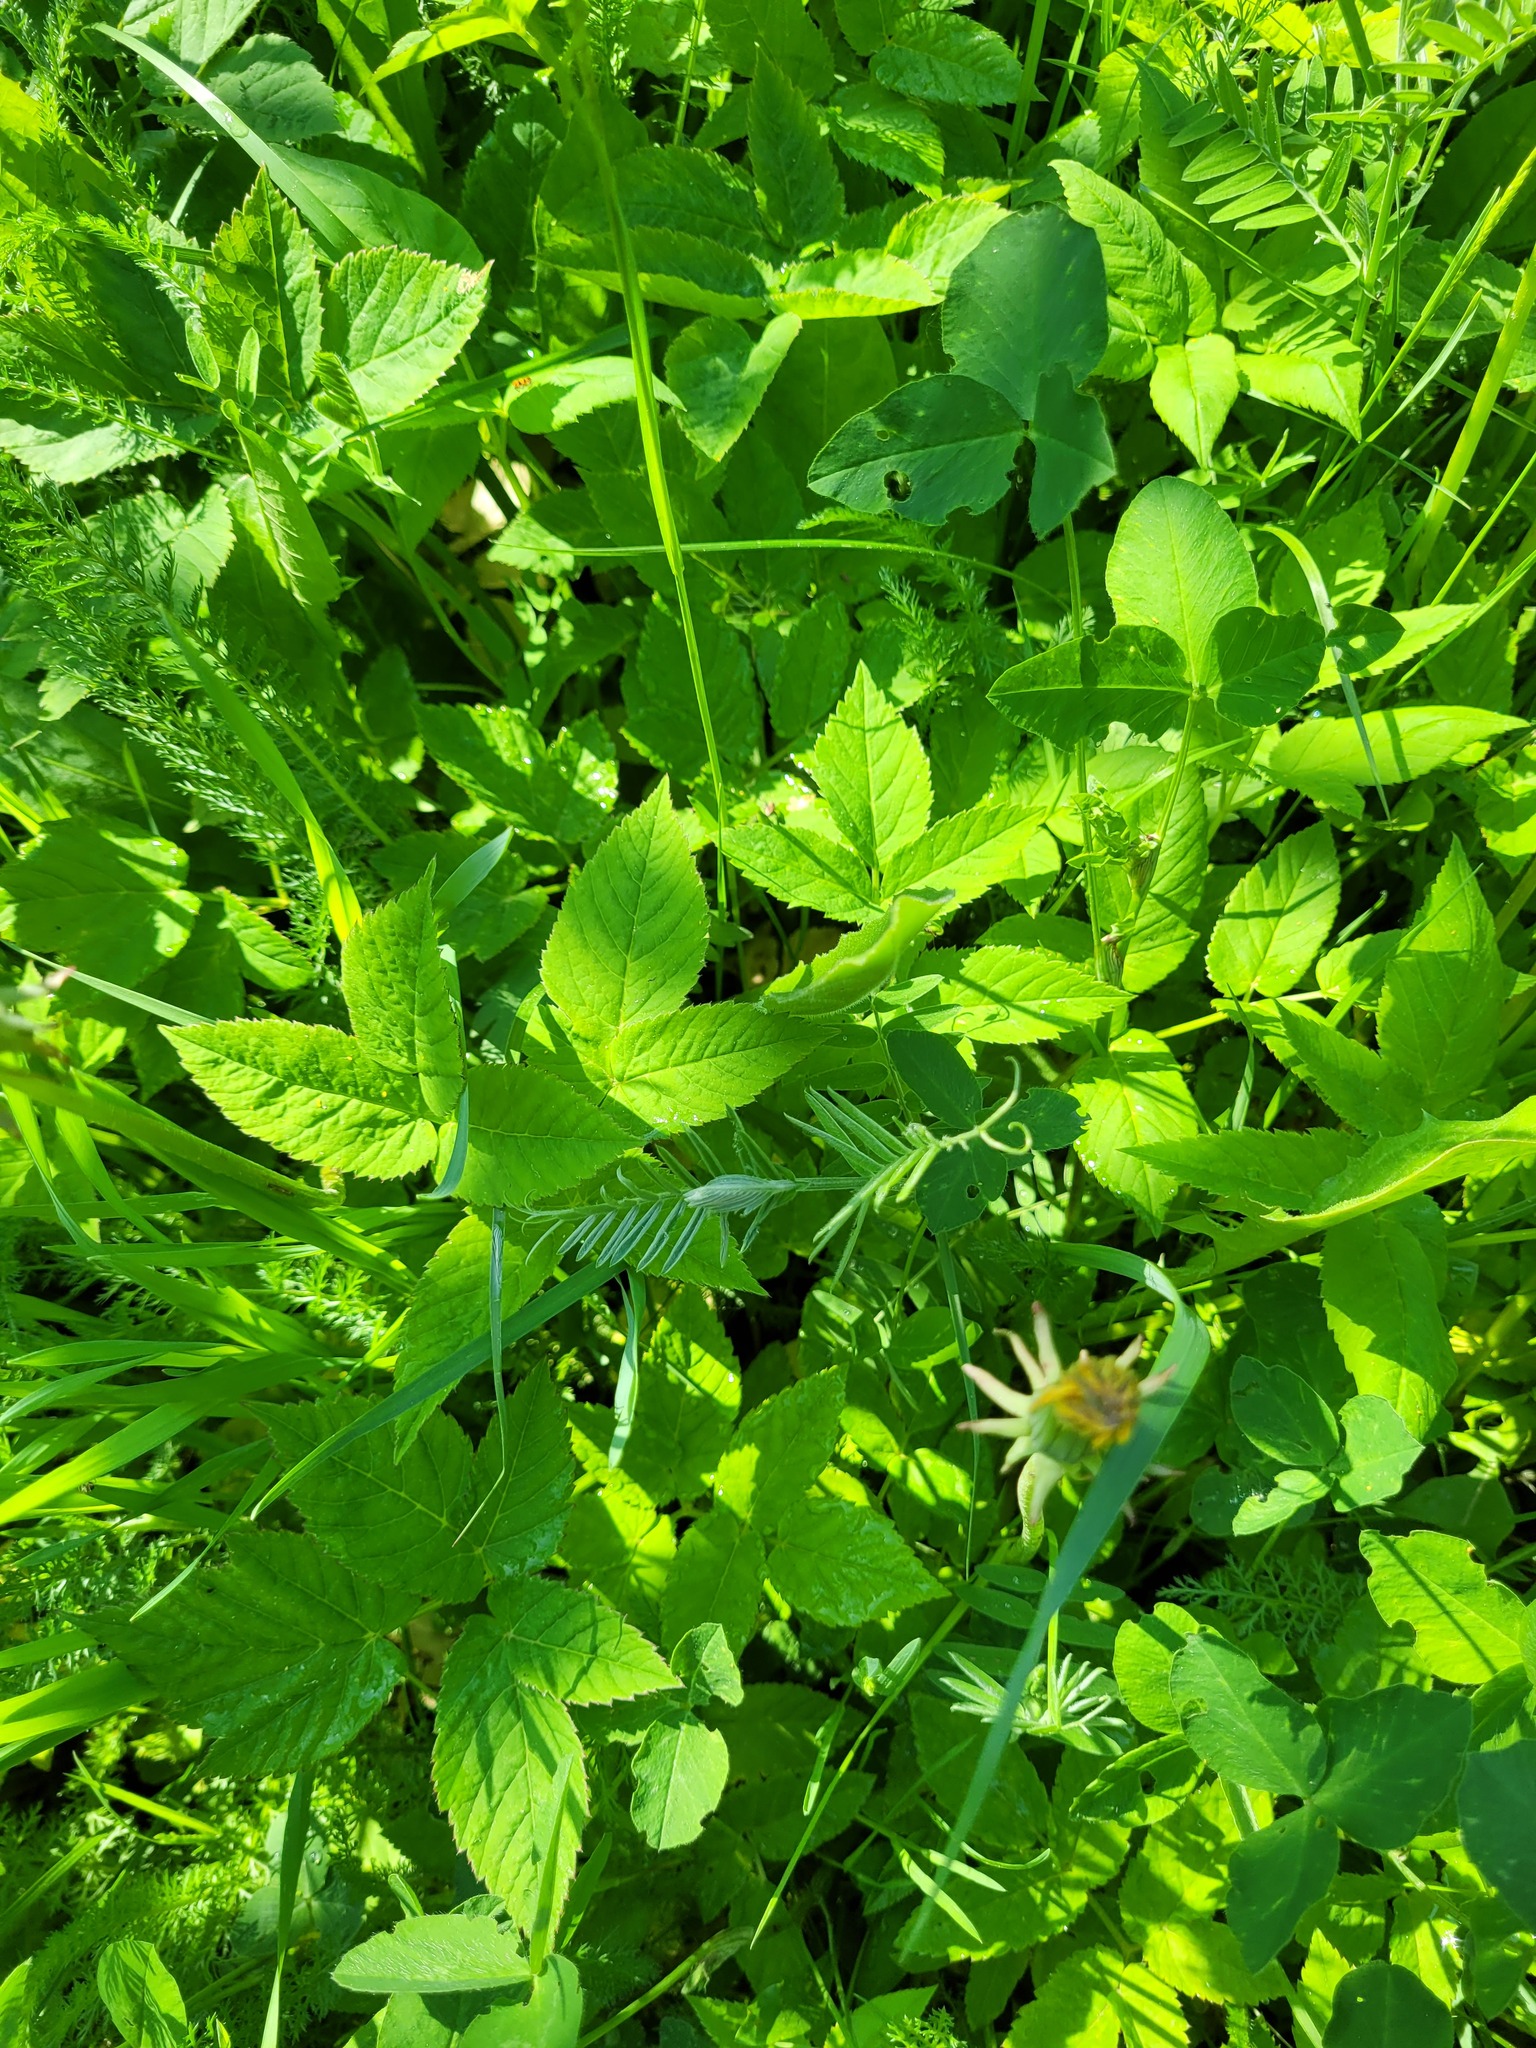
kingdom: Plantae
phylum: Tracheophyta
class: Magnoliopsida
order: Fabales
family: Fabaceae
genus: Vicia
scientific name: Vicia cracca
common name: Bird vetch
